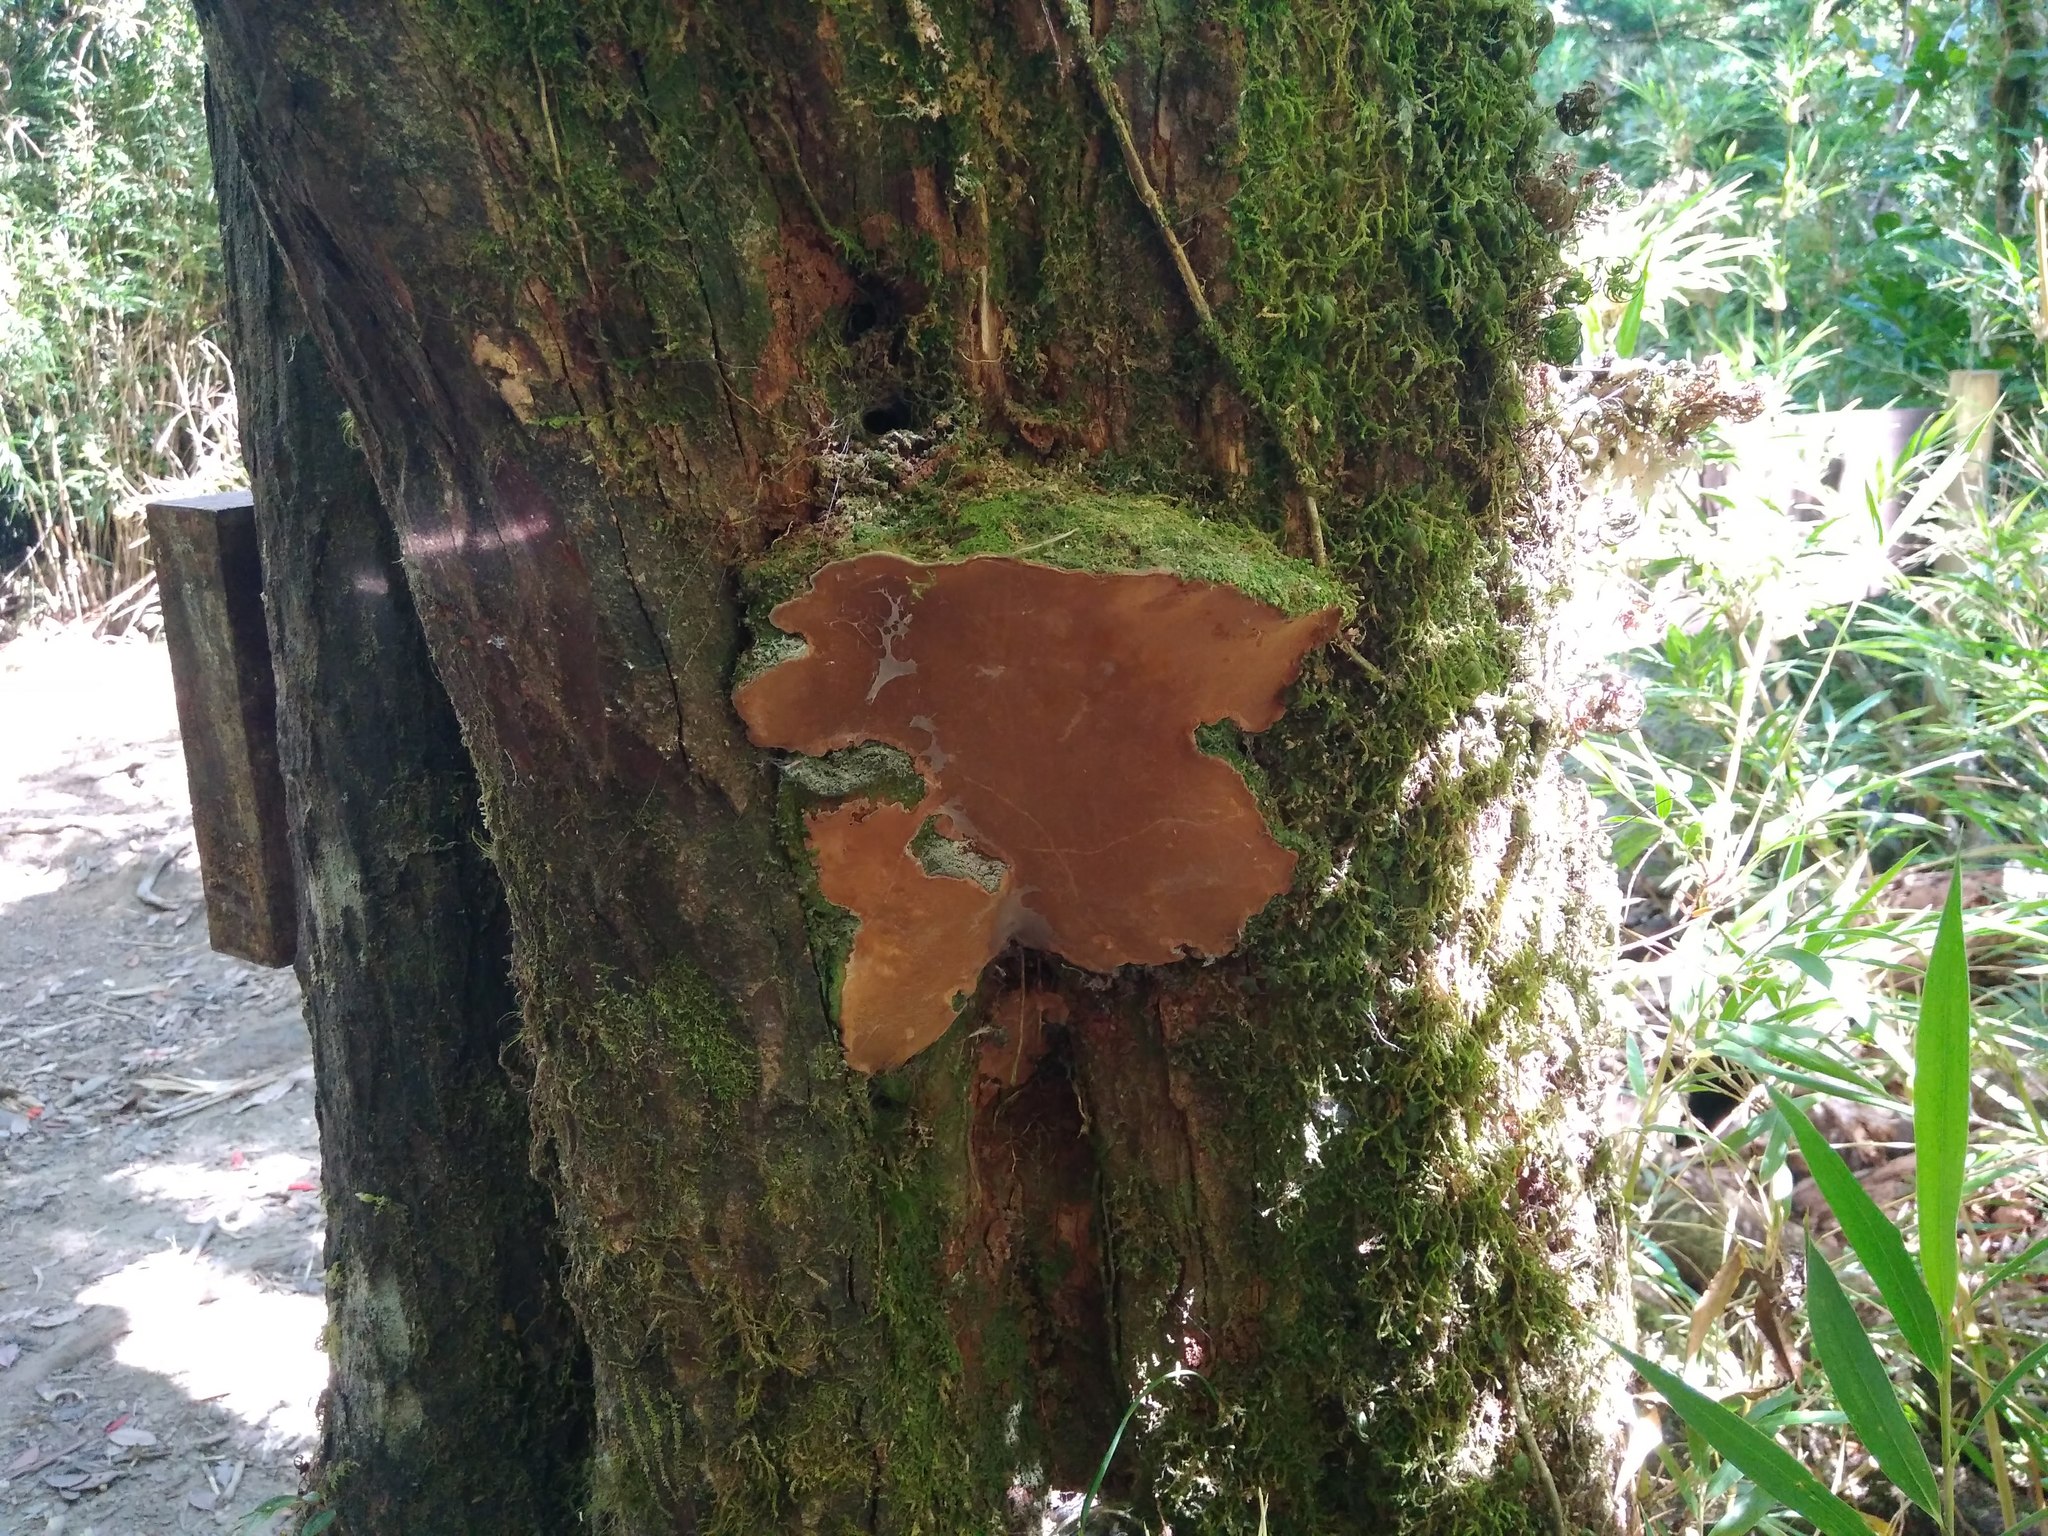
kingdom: Fungi
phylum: Basidiomycota
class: Agaricomycetes
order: Hymenochaetales
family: Hymenochaetaceae
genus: Fuscoporia
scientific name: Fuscoporia senex
